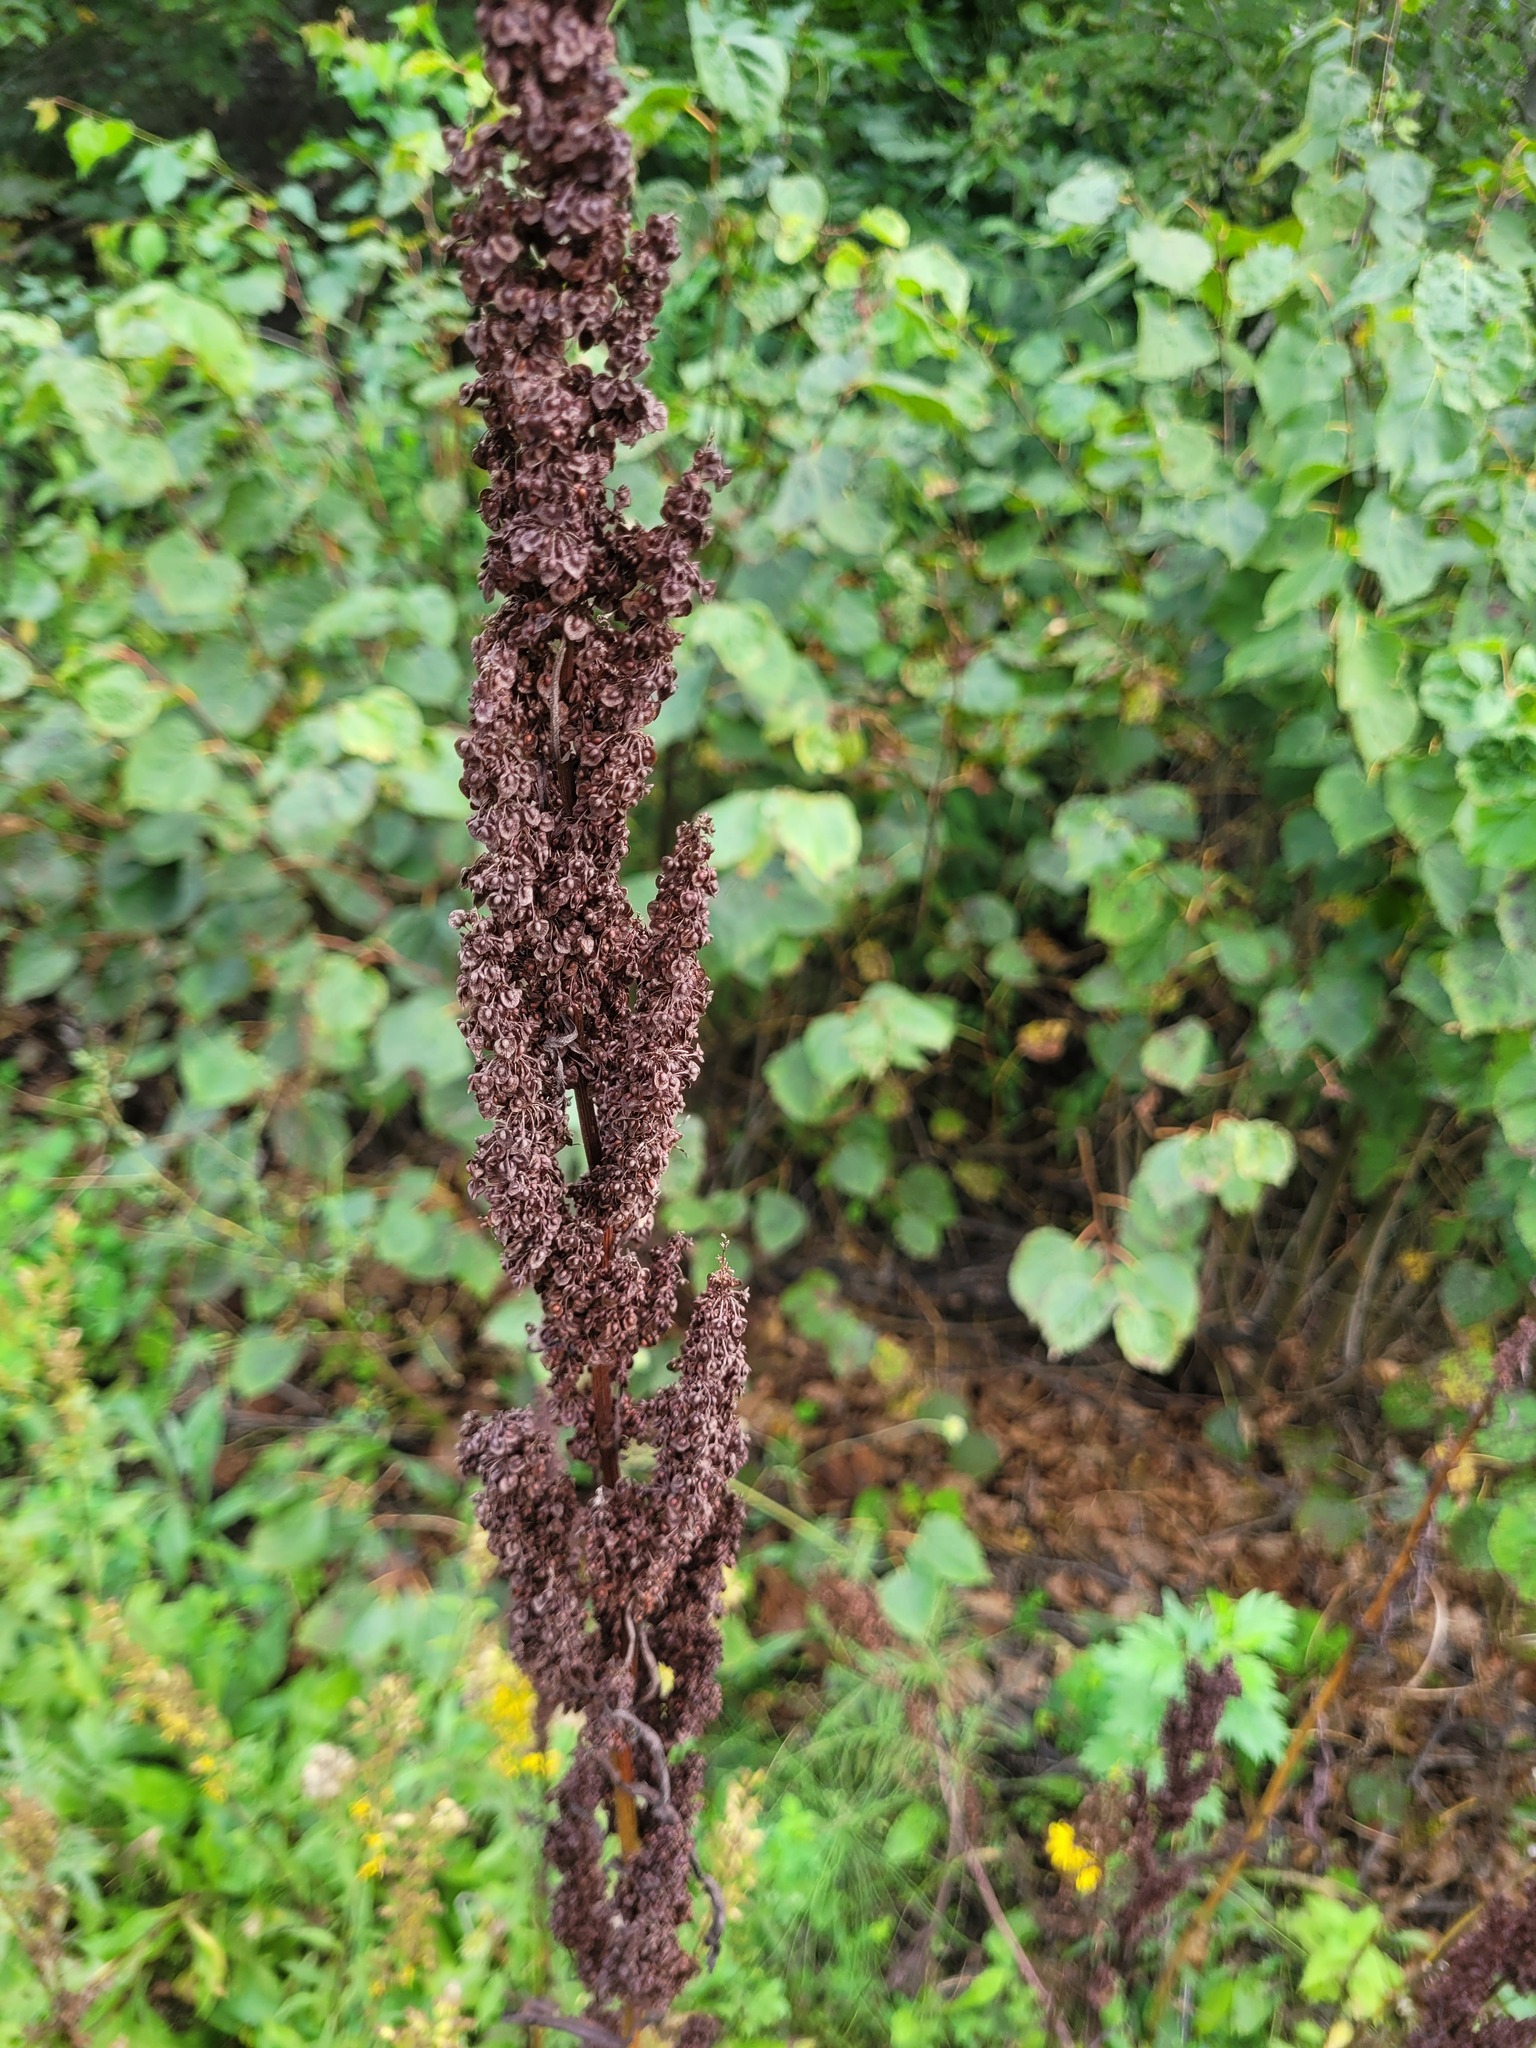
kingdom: Plantae
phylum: Tracheophyta
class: Magnoliopsida
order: Caryophyllales
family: Polygonaceae
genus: Rumex
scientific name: Rumex crispus
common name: Curled dock
